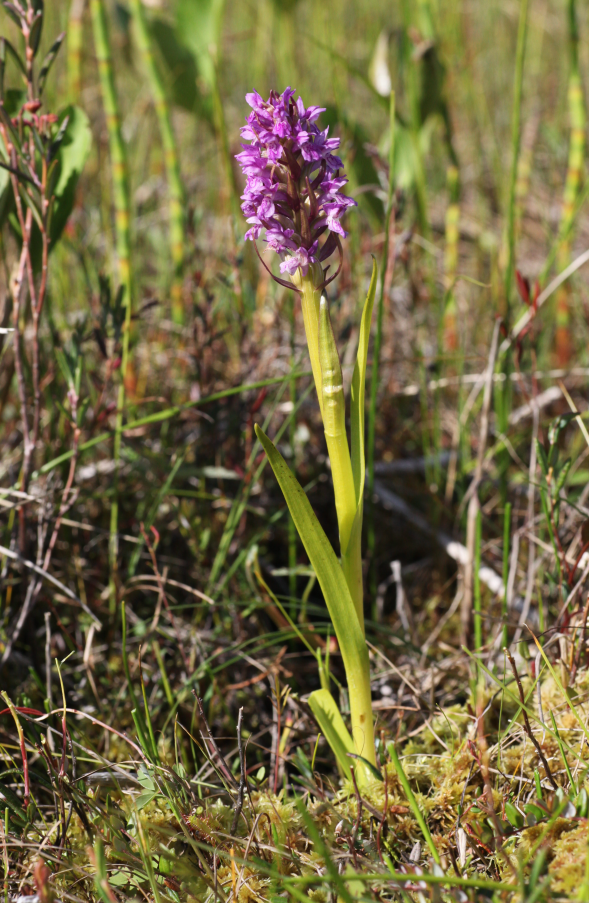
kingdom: Plantae
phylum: Tracheophyta
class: Liliopsida
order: Asparagales
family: Orchidaceae
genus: Dactylorhiza
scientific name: Dactylorhiza incarnata
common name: Early marsh-orchid
